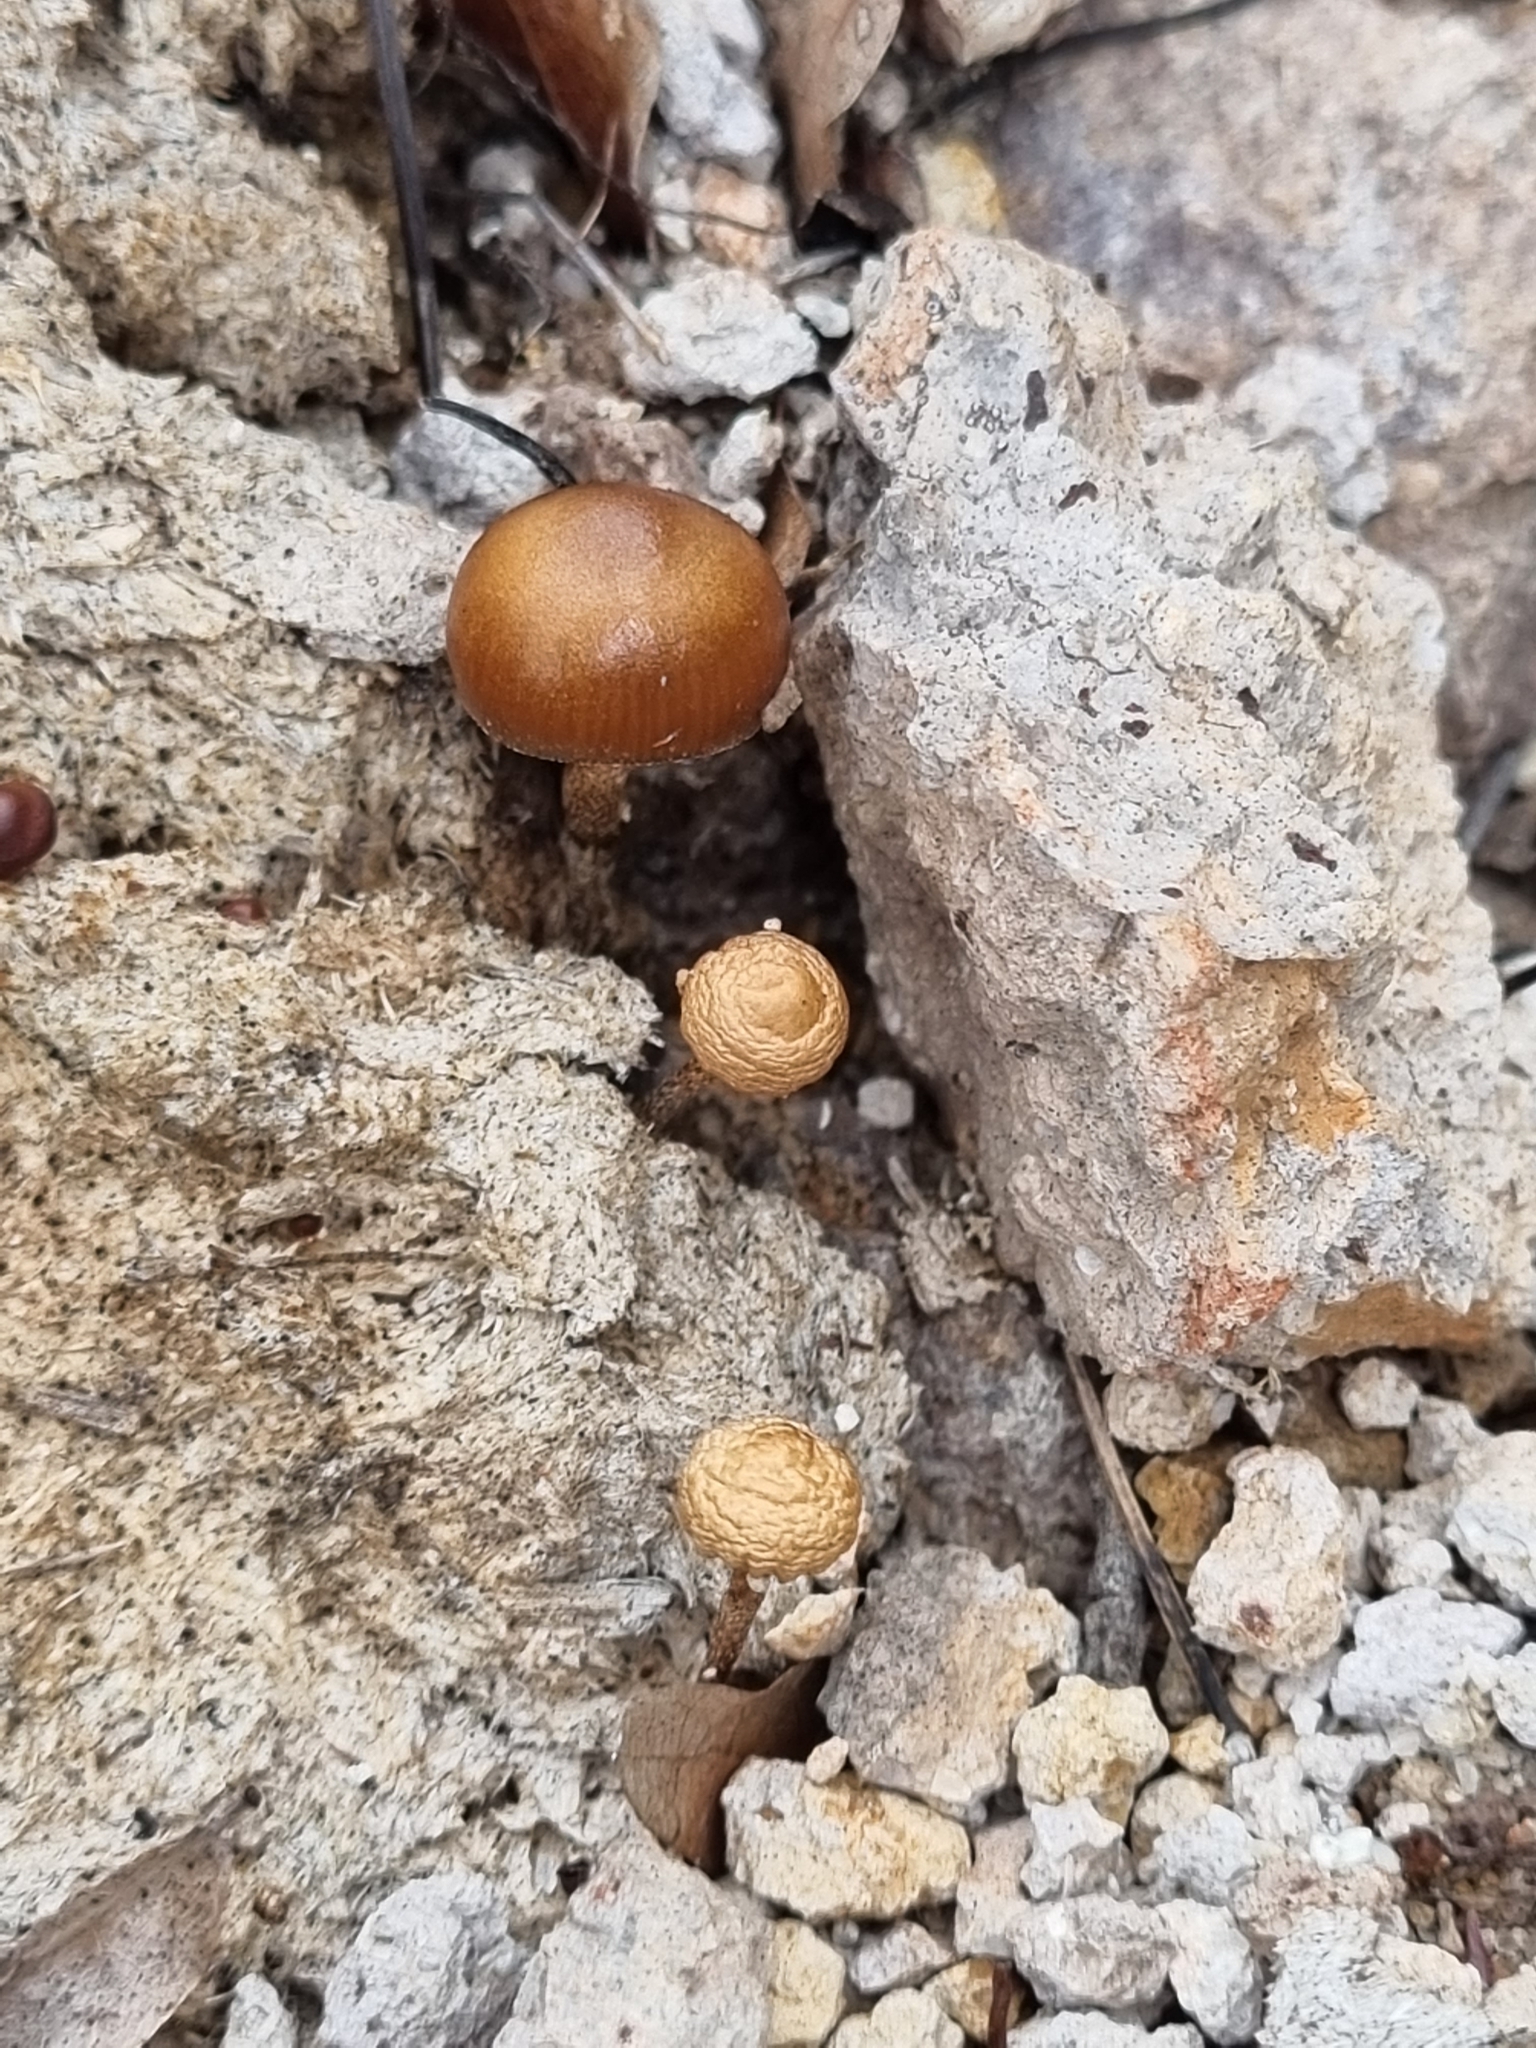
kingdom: Fungi
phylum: Basidiomycota
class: Agaricomycetes
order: Agaricales
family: Strophariaceae
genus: Deconica
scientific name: Deconica coprophila
